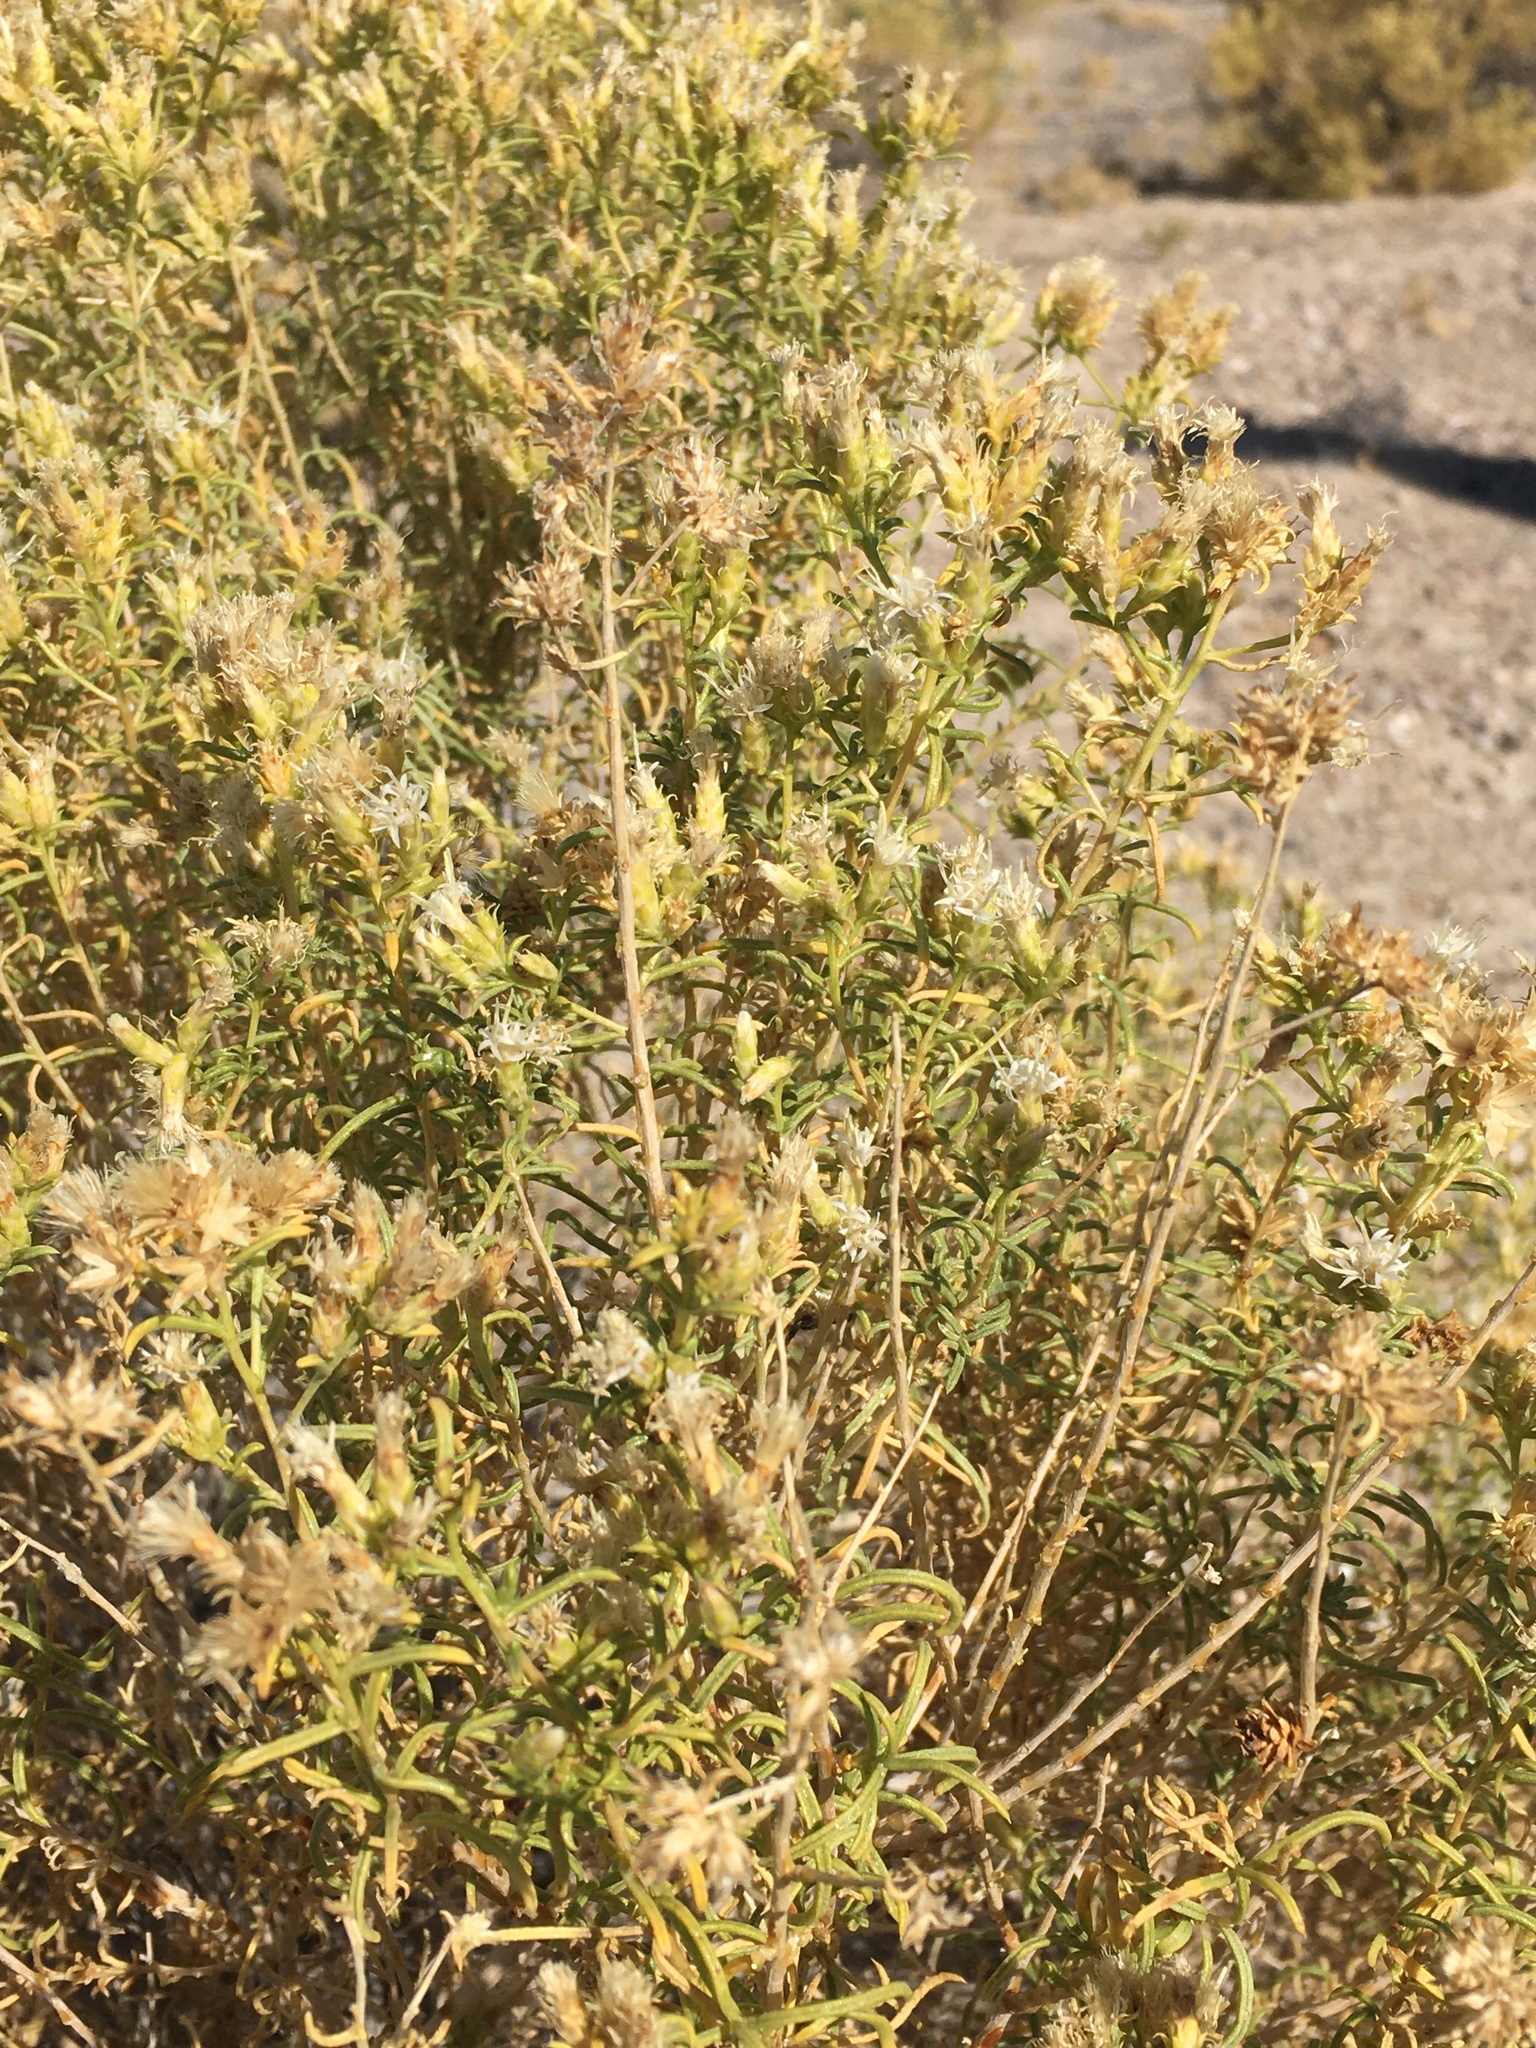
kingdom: Plantae
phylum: Tracheophyta
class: Magnoliopsida
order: Asterales
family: Asteraceae
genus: Ericameria
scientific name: Ericameria albida
